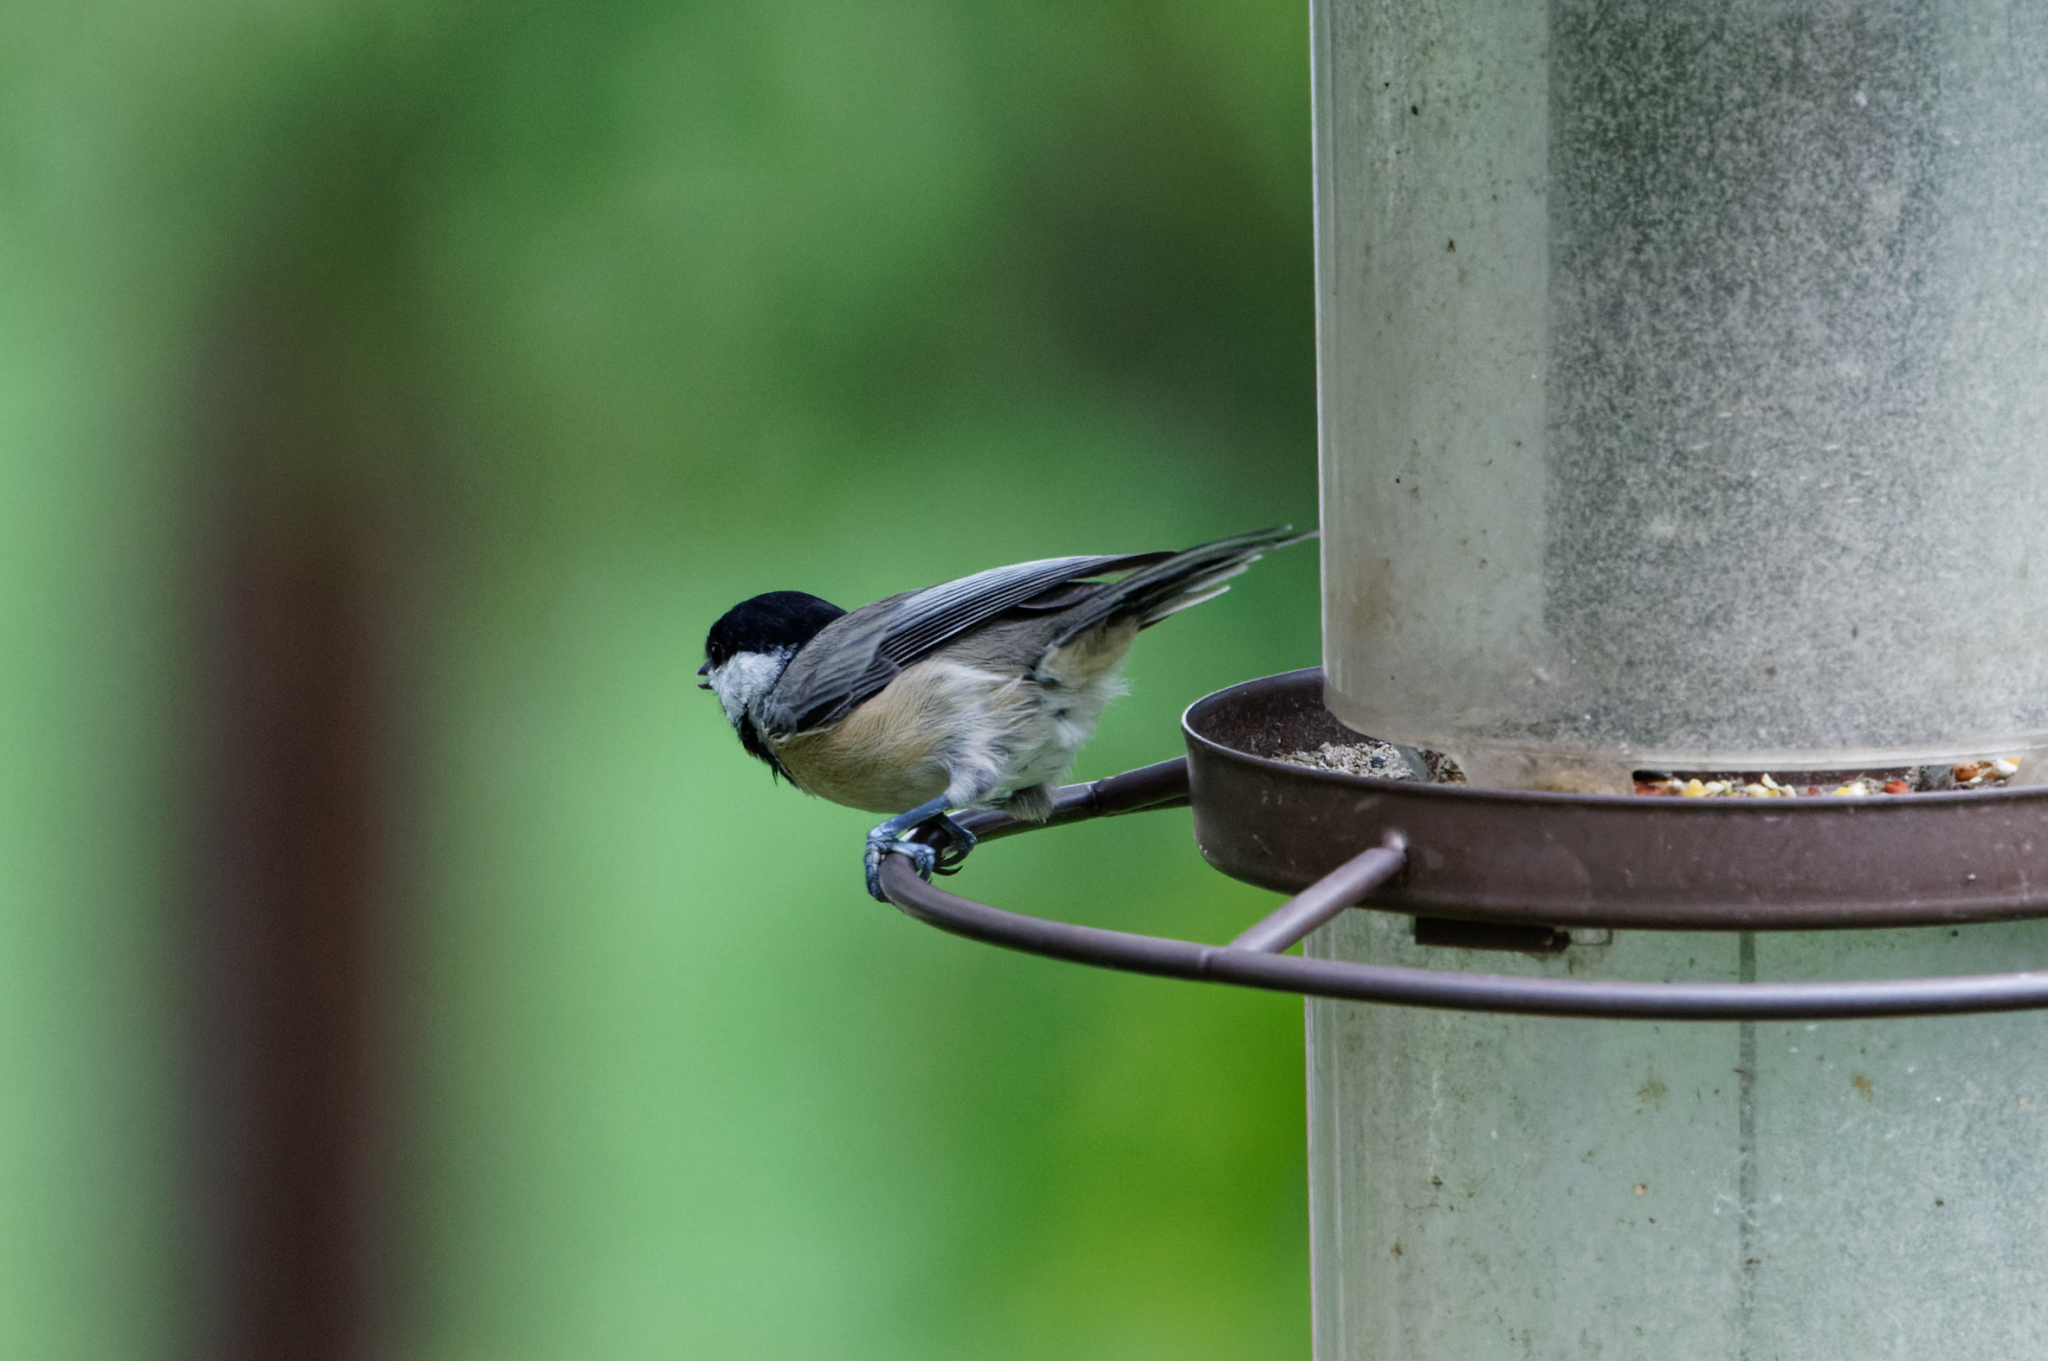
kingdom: Animalia
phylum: Chordata
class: Aves
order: Passeriformes
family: Paridae
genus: Poecile
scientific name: Poecile carolinensis
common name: Carolina chickadee
